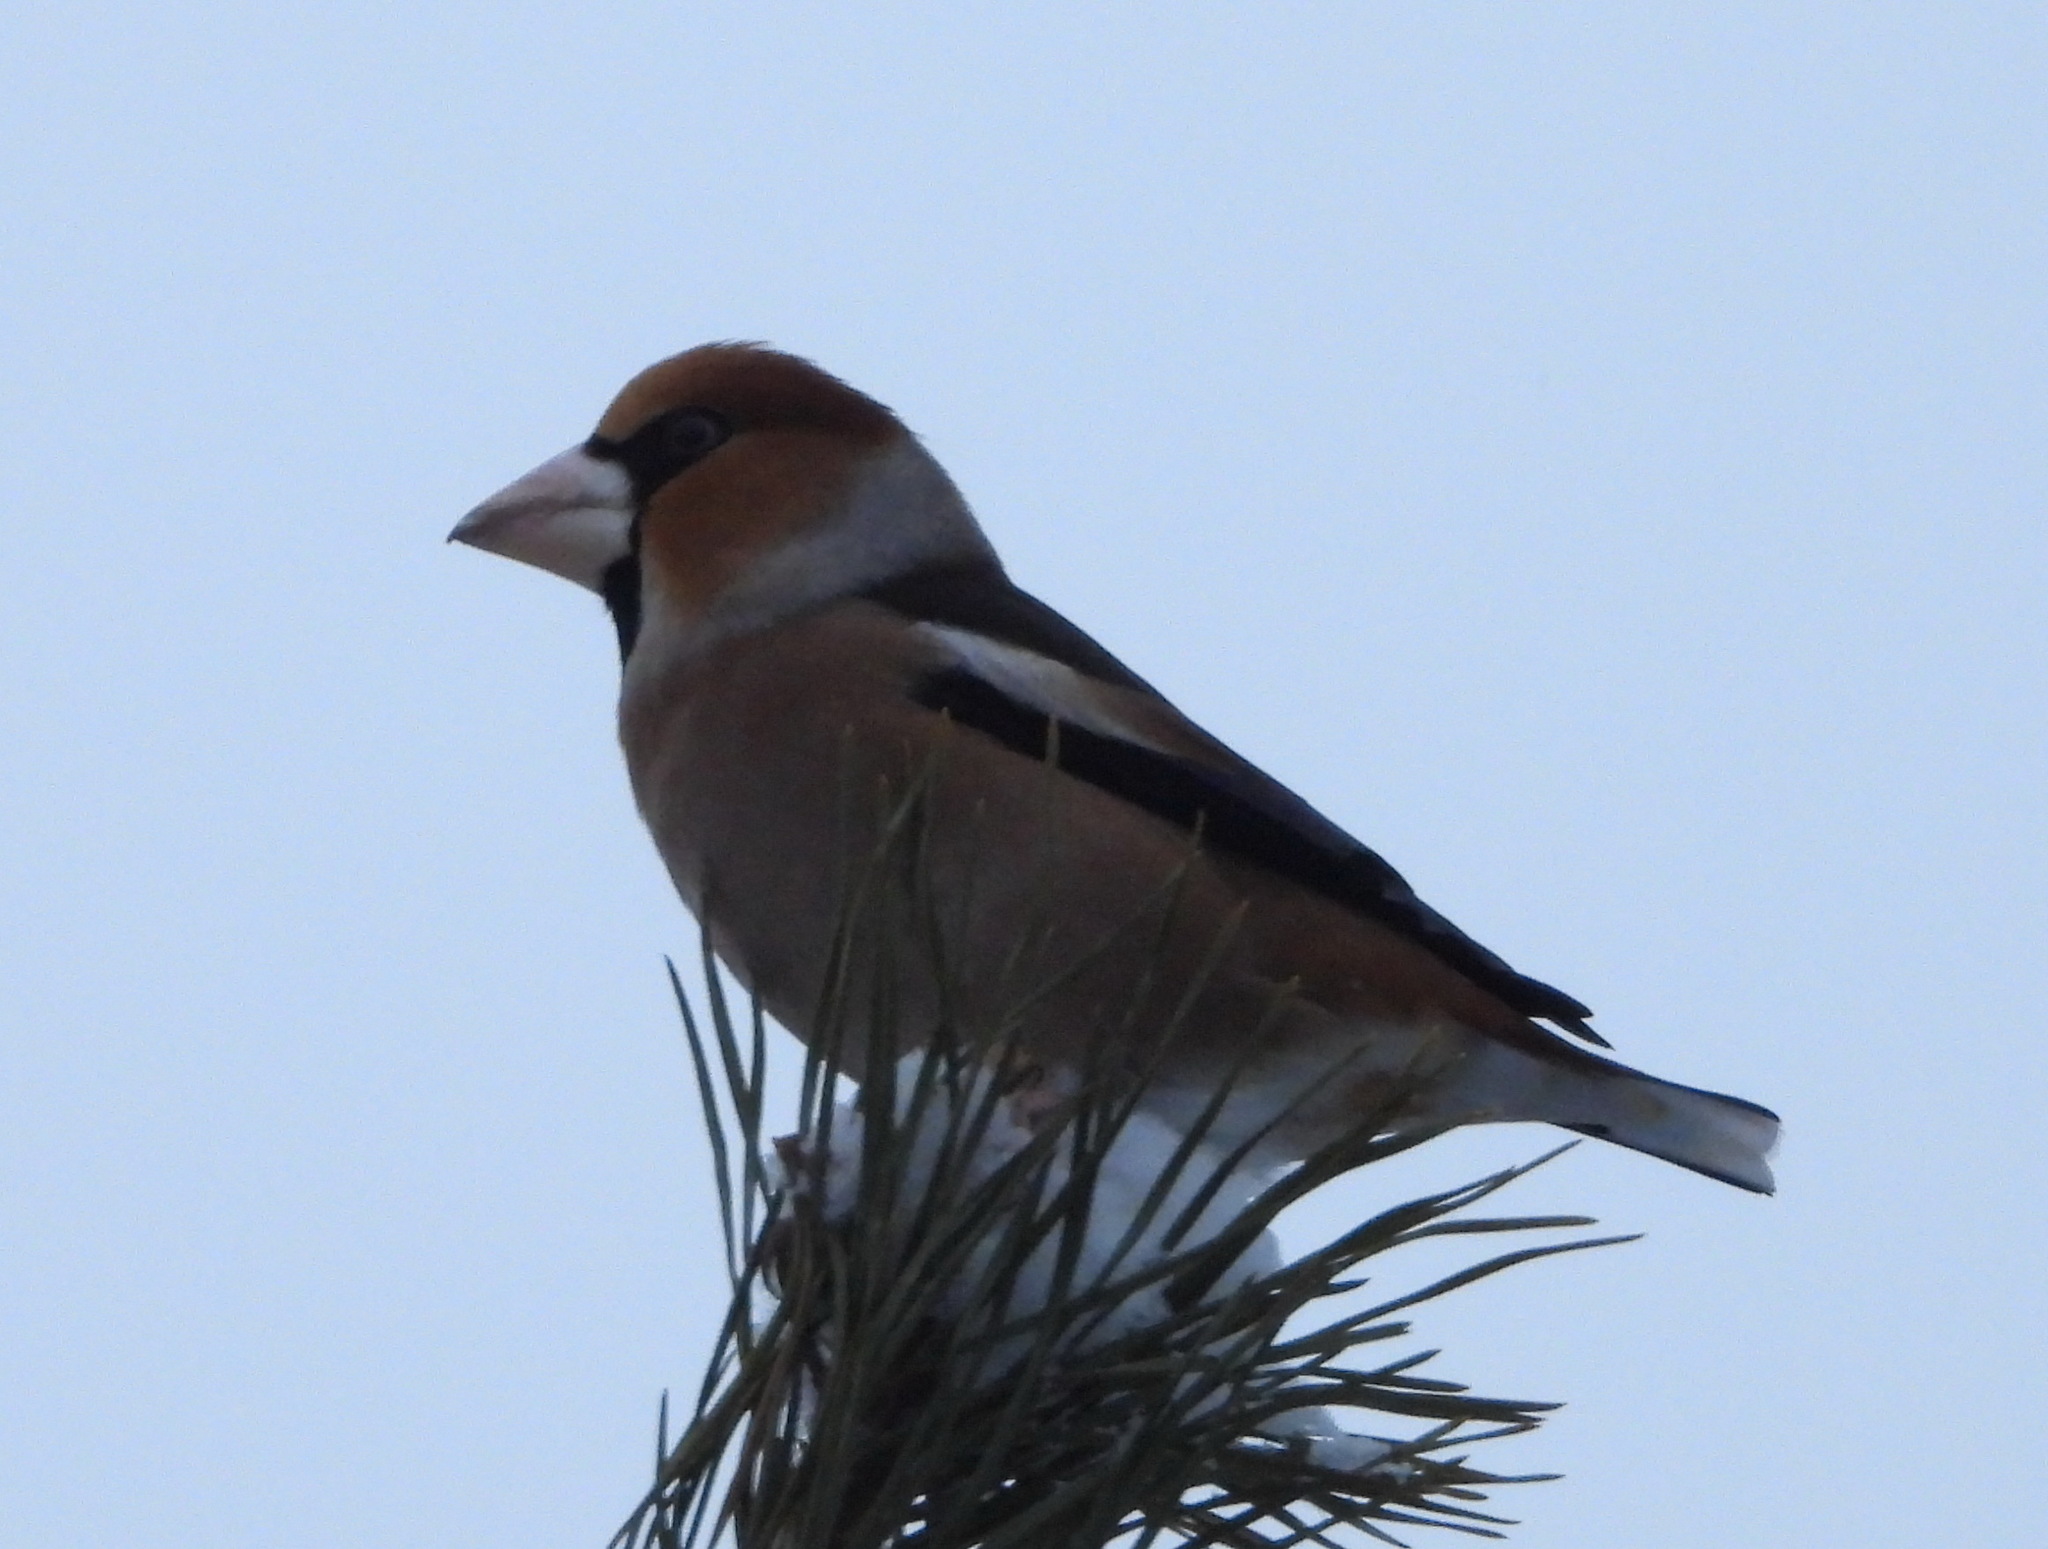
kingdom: Animalia
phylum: Chordata
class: Aves
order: Passeriformes
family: Fringillidae
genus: Coccothraustes
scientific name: Coccothraustes coccothraustes
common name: Hawfinch
